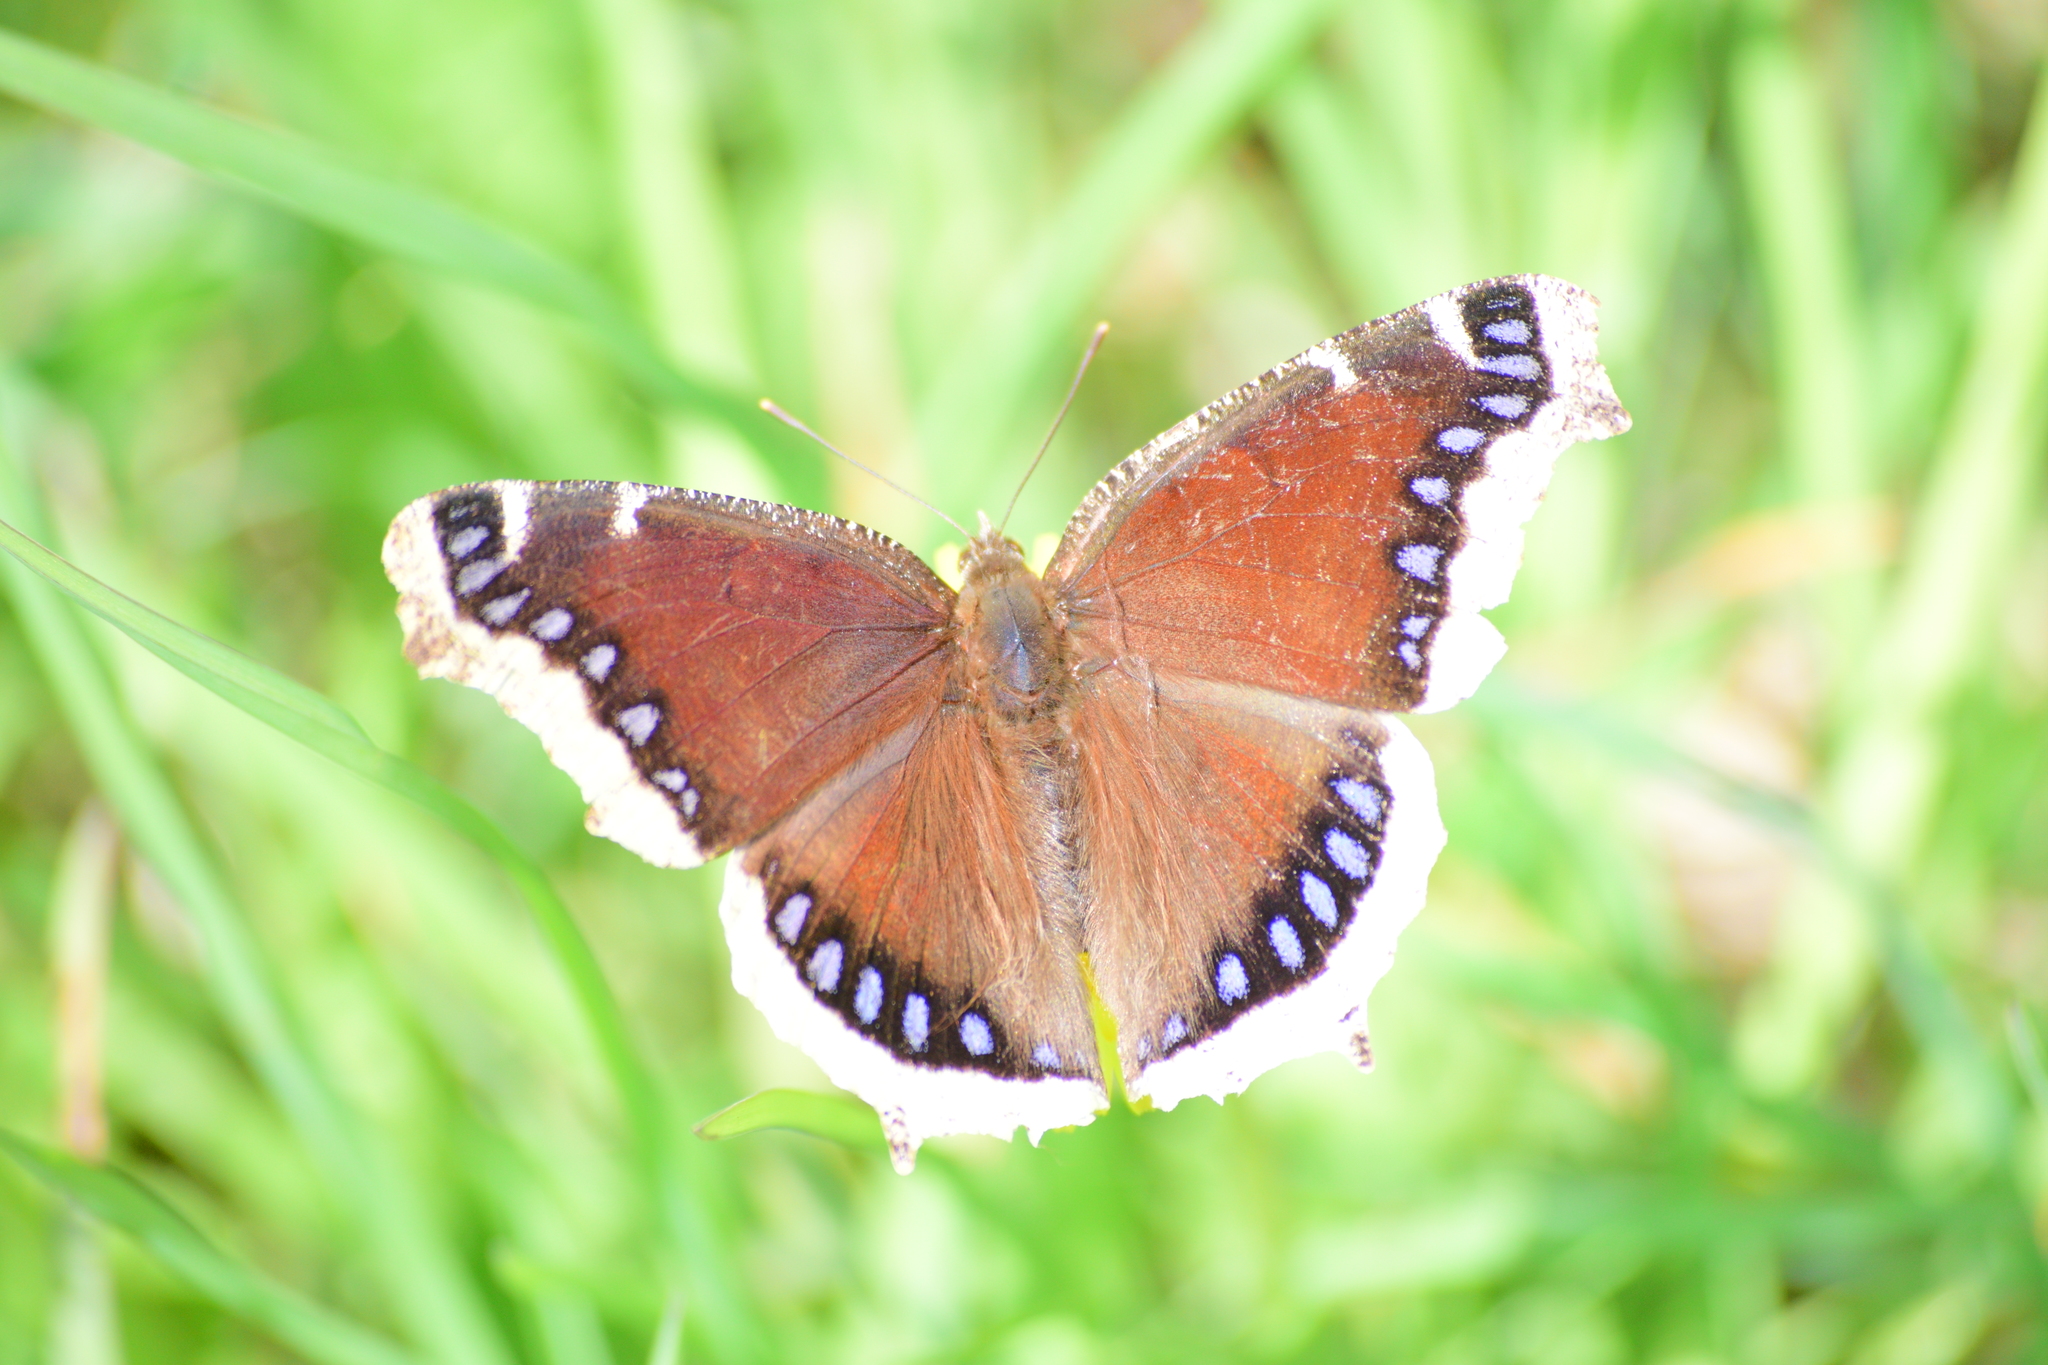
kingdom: Animalia
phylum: Arthropoda
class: Insecta
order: Lepidoptera
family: Nymphalidae
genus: Nymphalis
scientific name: Nymphalis antiopa
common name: Camberwell beauty
